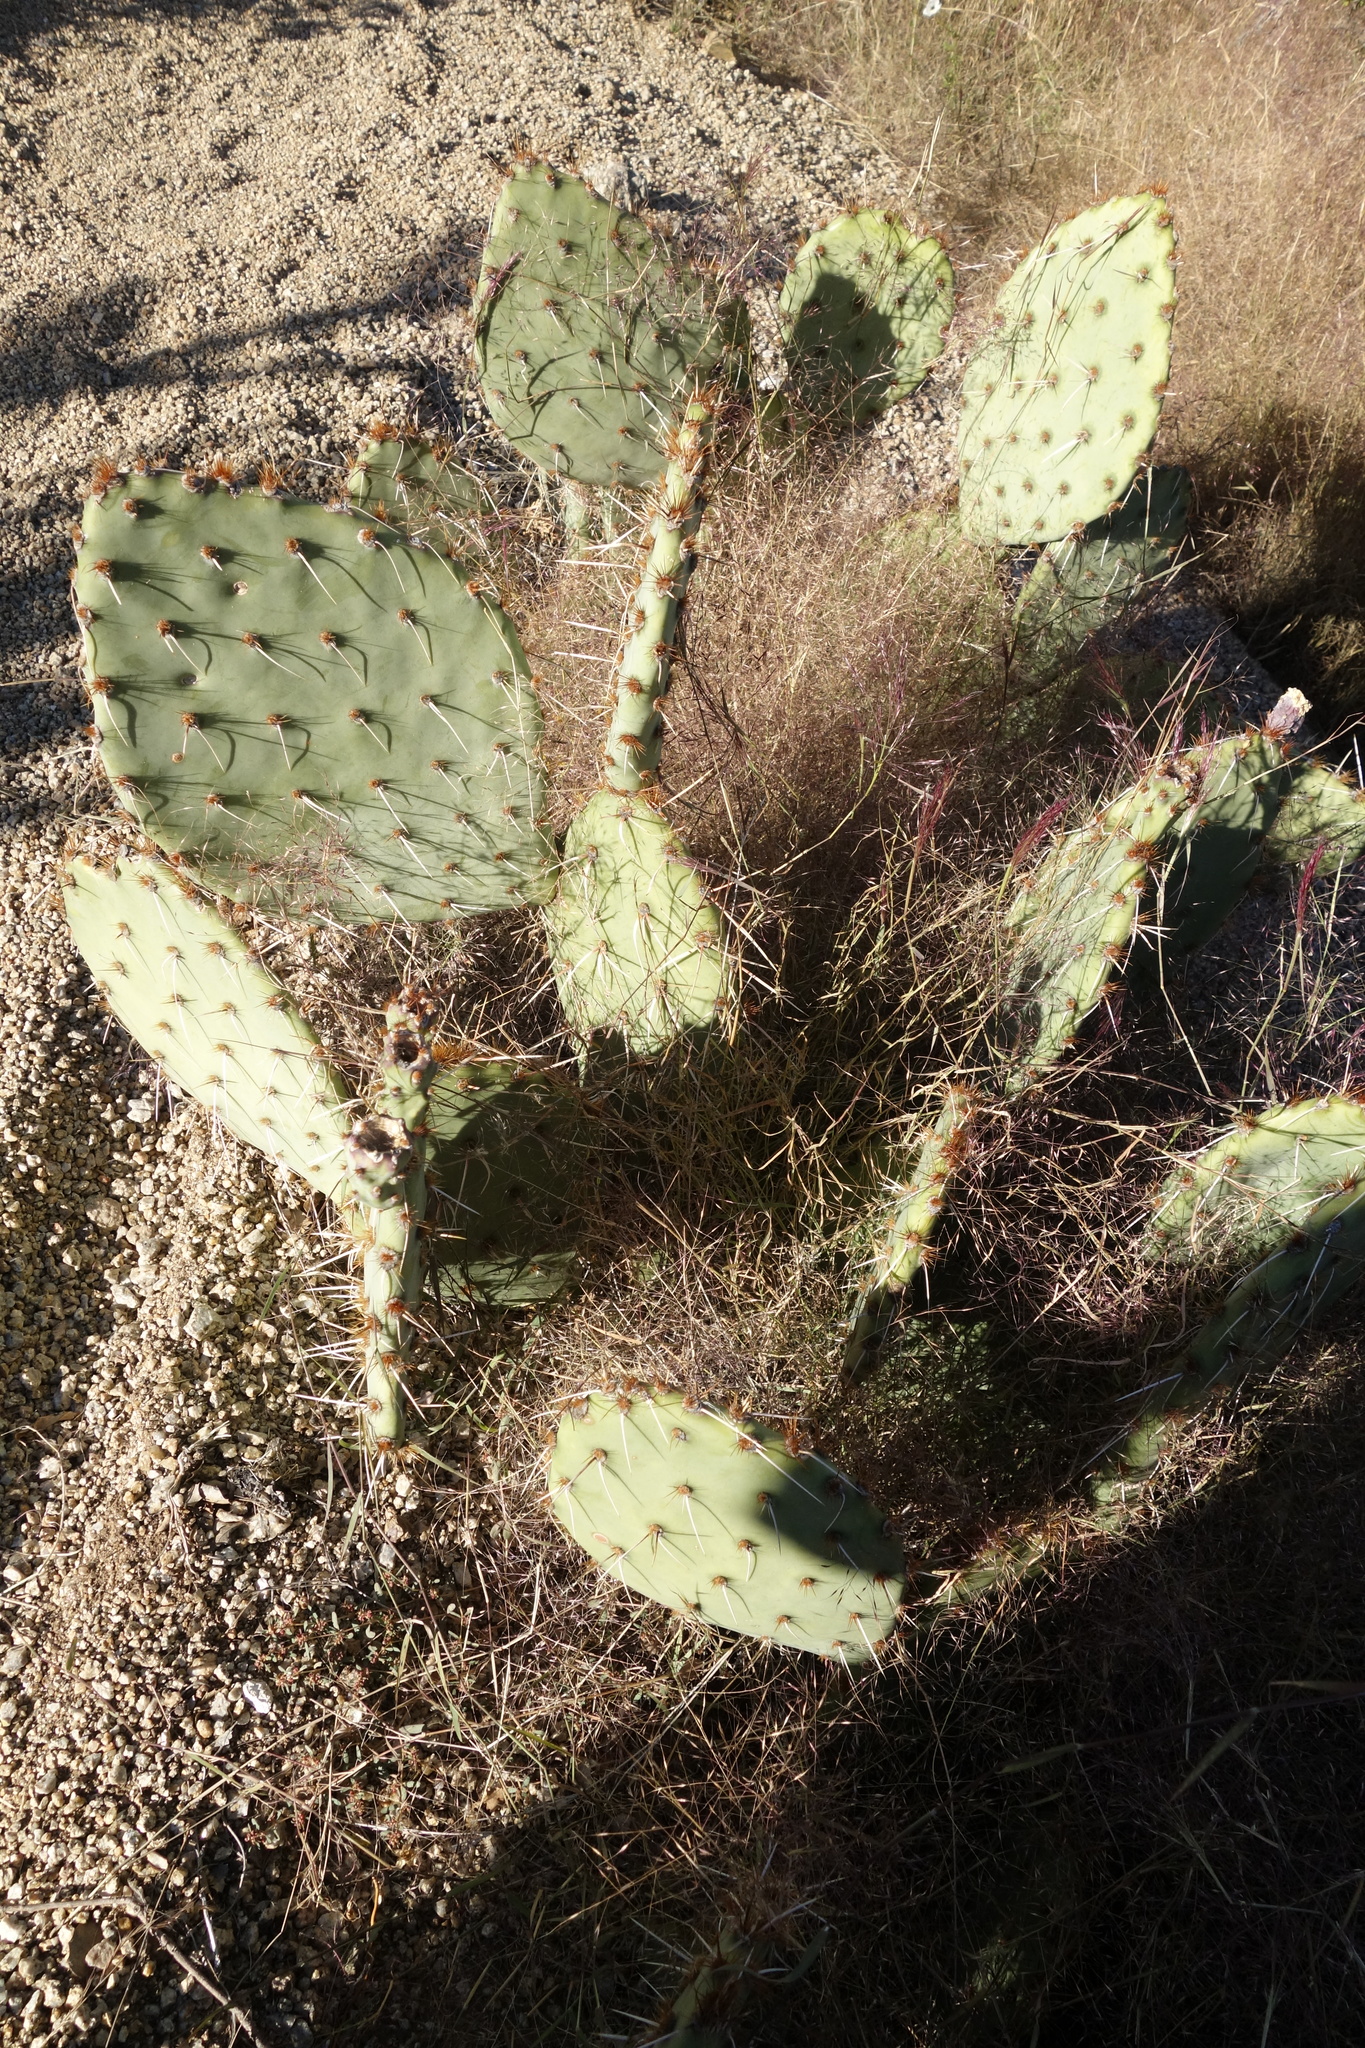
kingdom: Plantae
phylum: Tracheophyta
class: Magnoliopsida
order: Caryophyllales
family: Cactaceae
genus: Opuntia
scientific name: Opuntia engelmannii
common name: Cactus-apple
